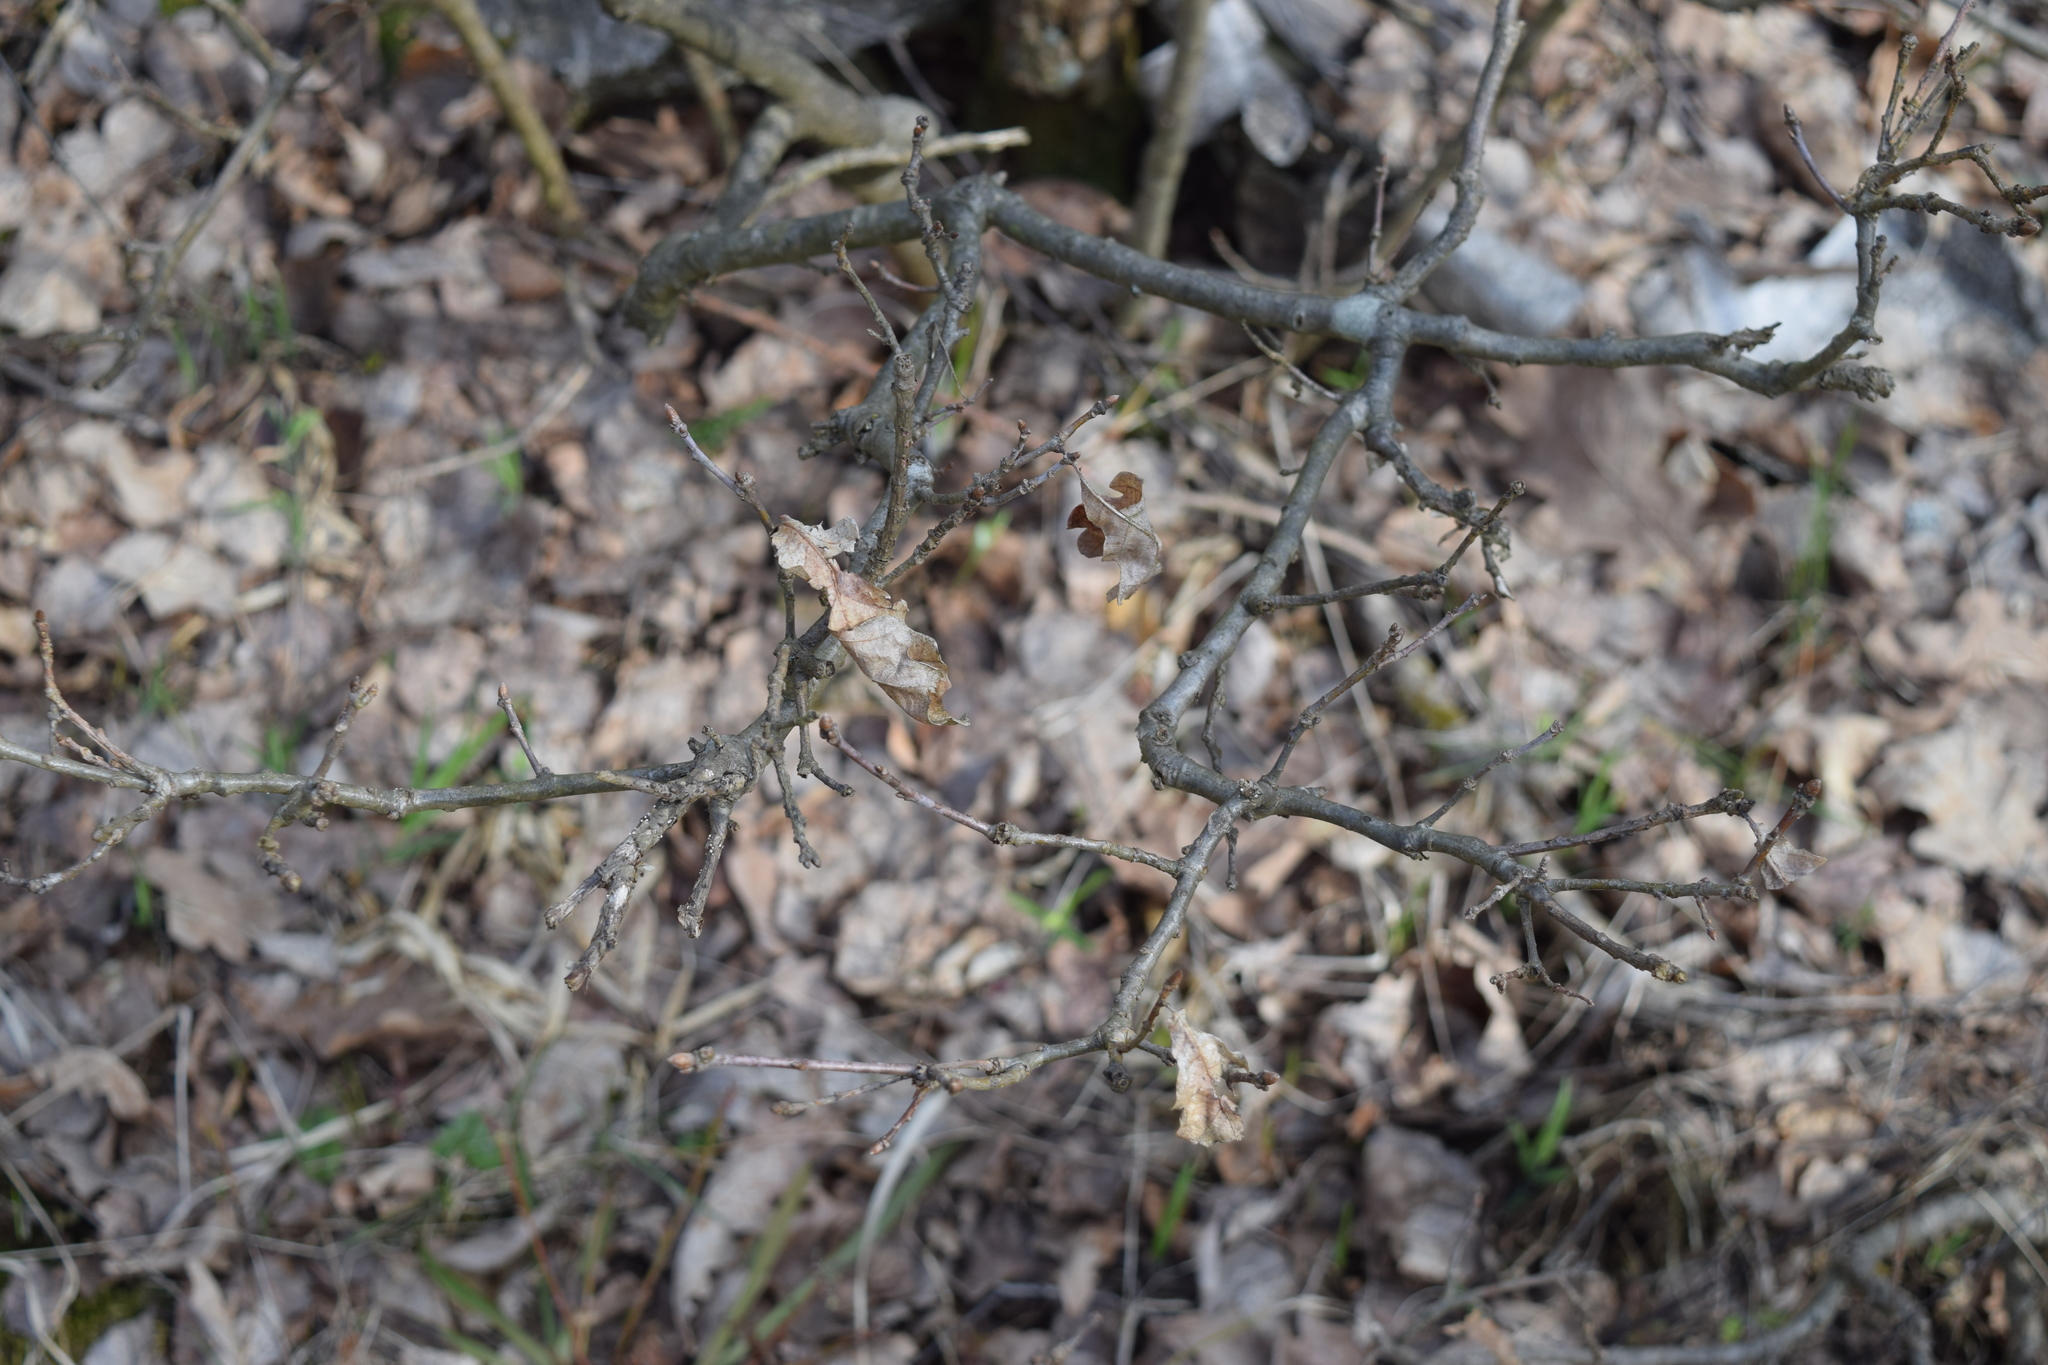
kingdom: Plantae
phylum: Tracheophyta
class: Magnoliopsida
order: Fagales
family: Fagaceae
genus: Quercus
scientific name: Quercus robur
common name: Pedunculate oak
